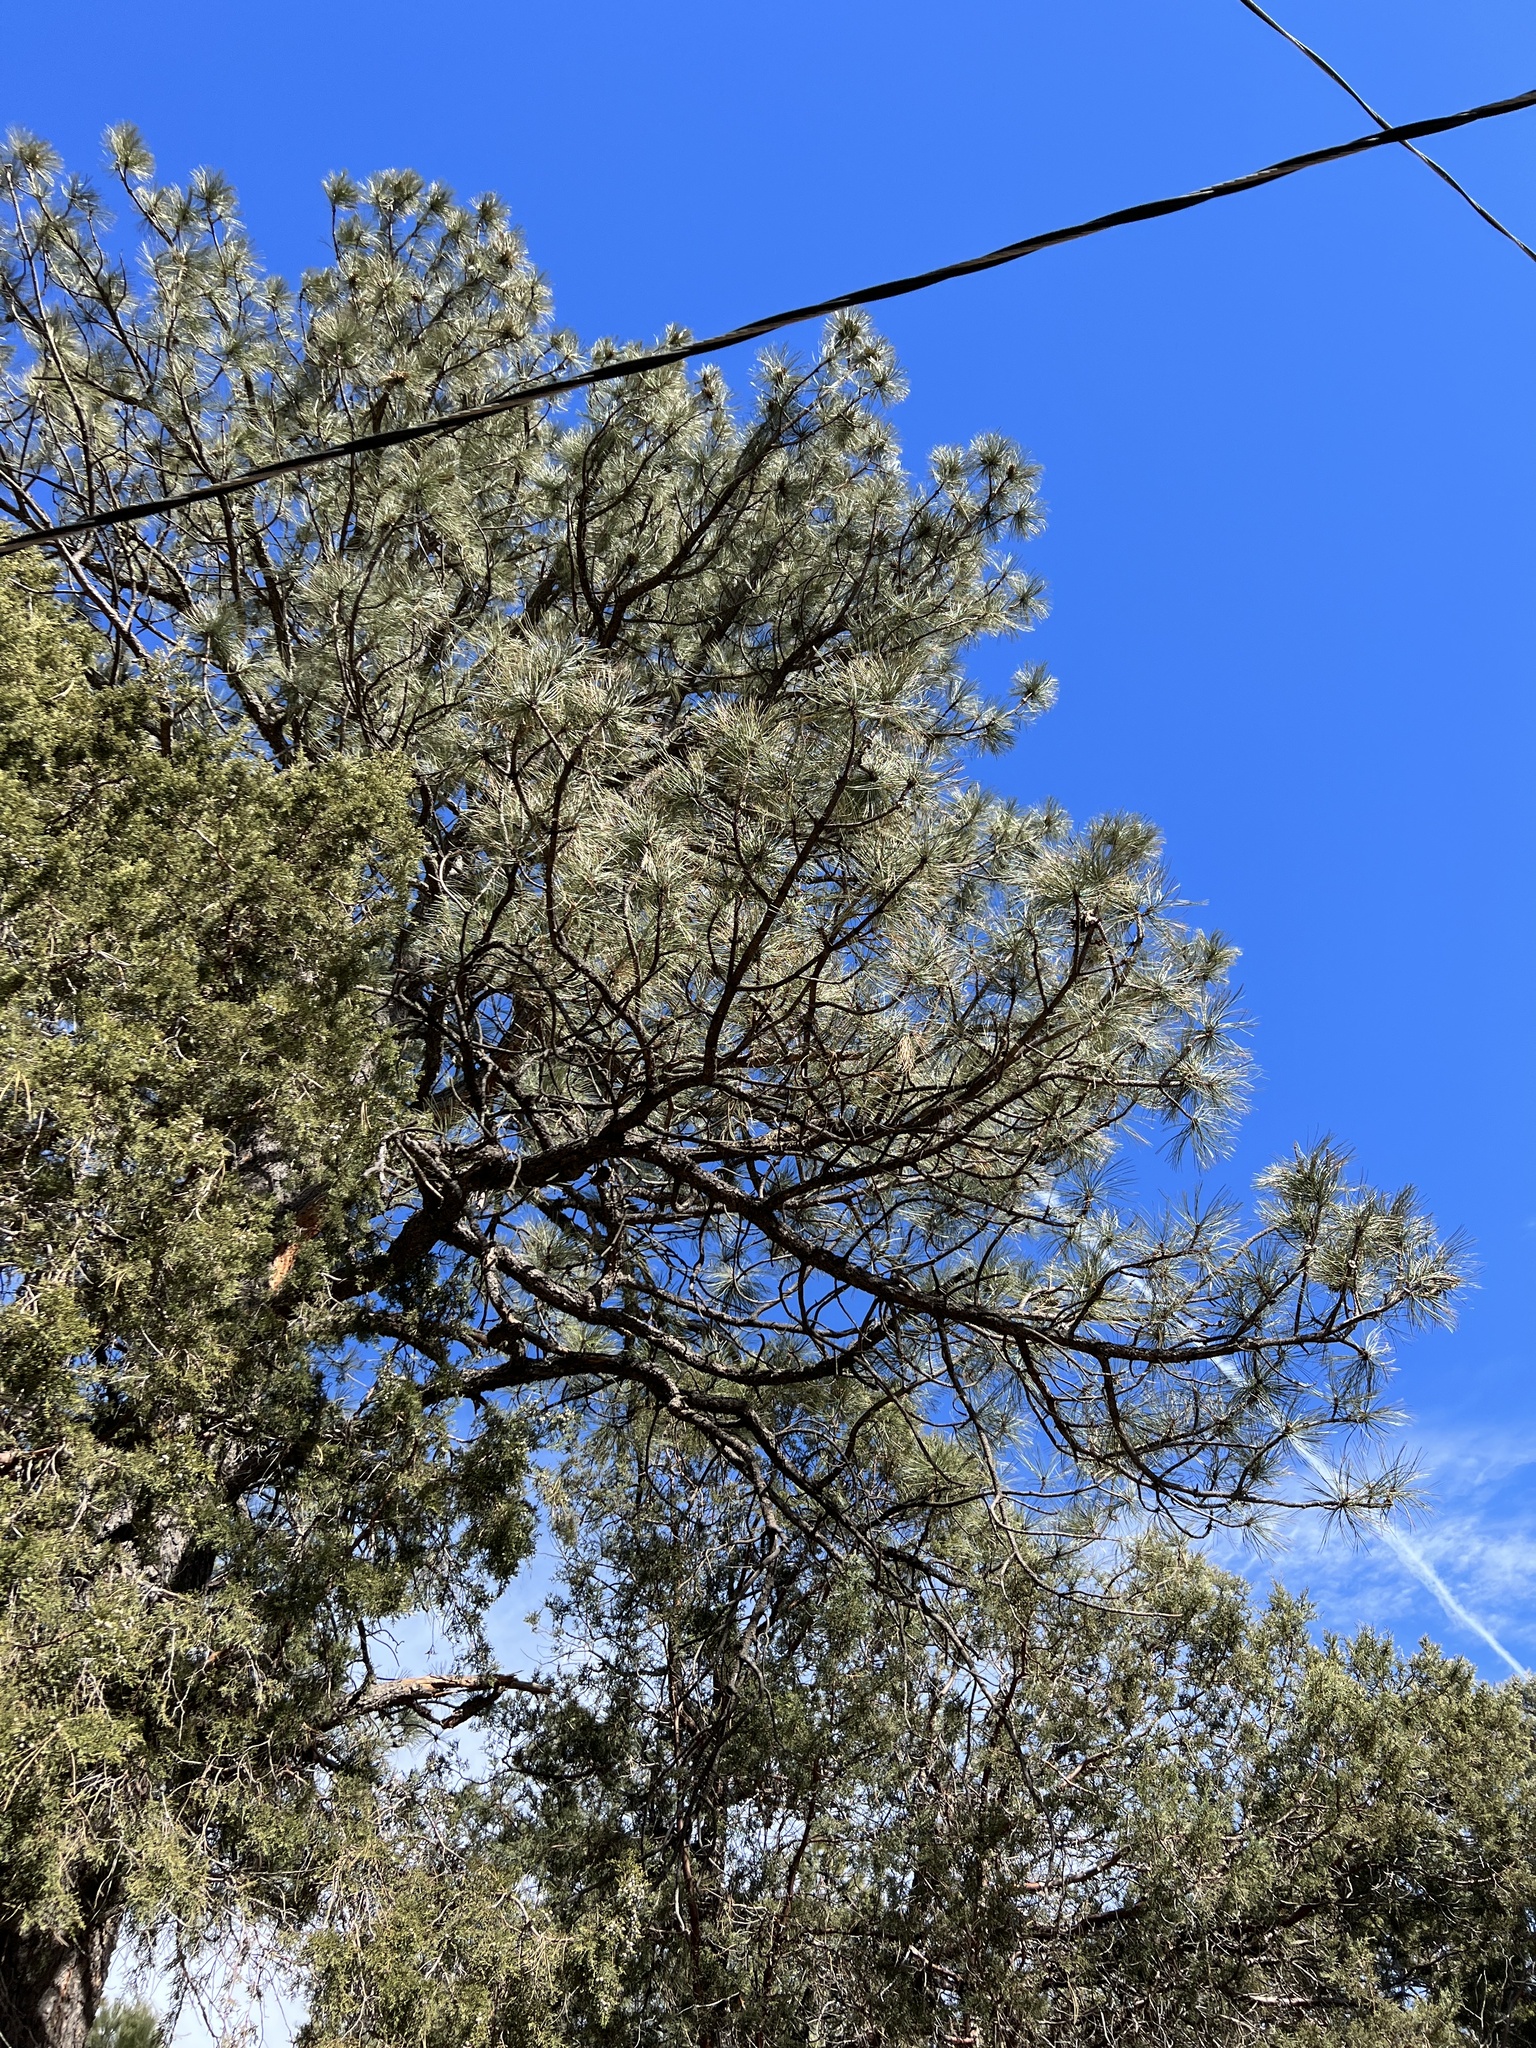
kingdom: Plantae
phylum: Tracheophyta
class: Pinopsida
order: Pinales
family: Pinaceae
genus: Pinus
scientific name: Pinus ponderosa
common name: Western yellow-pine
